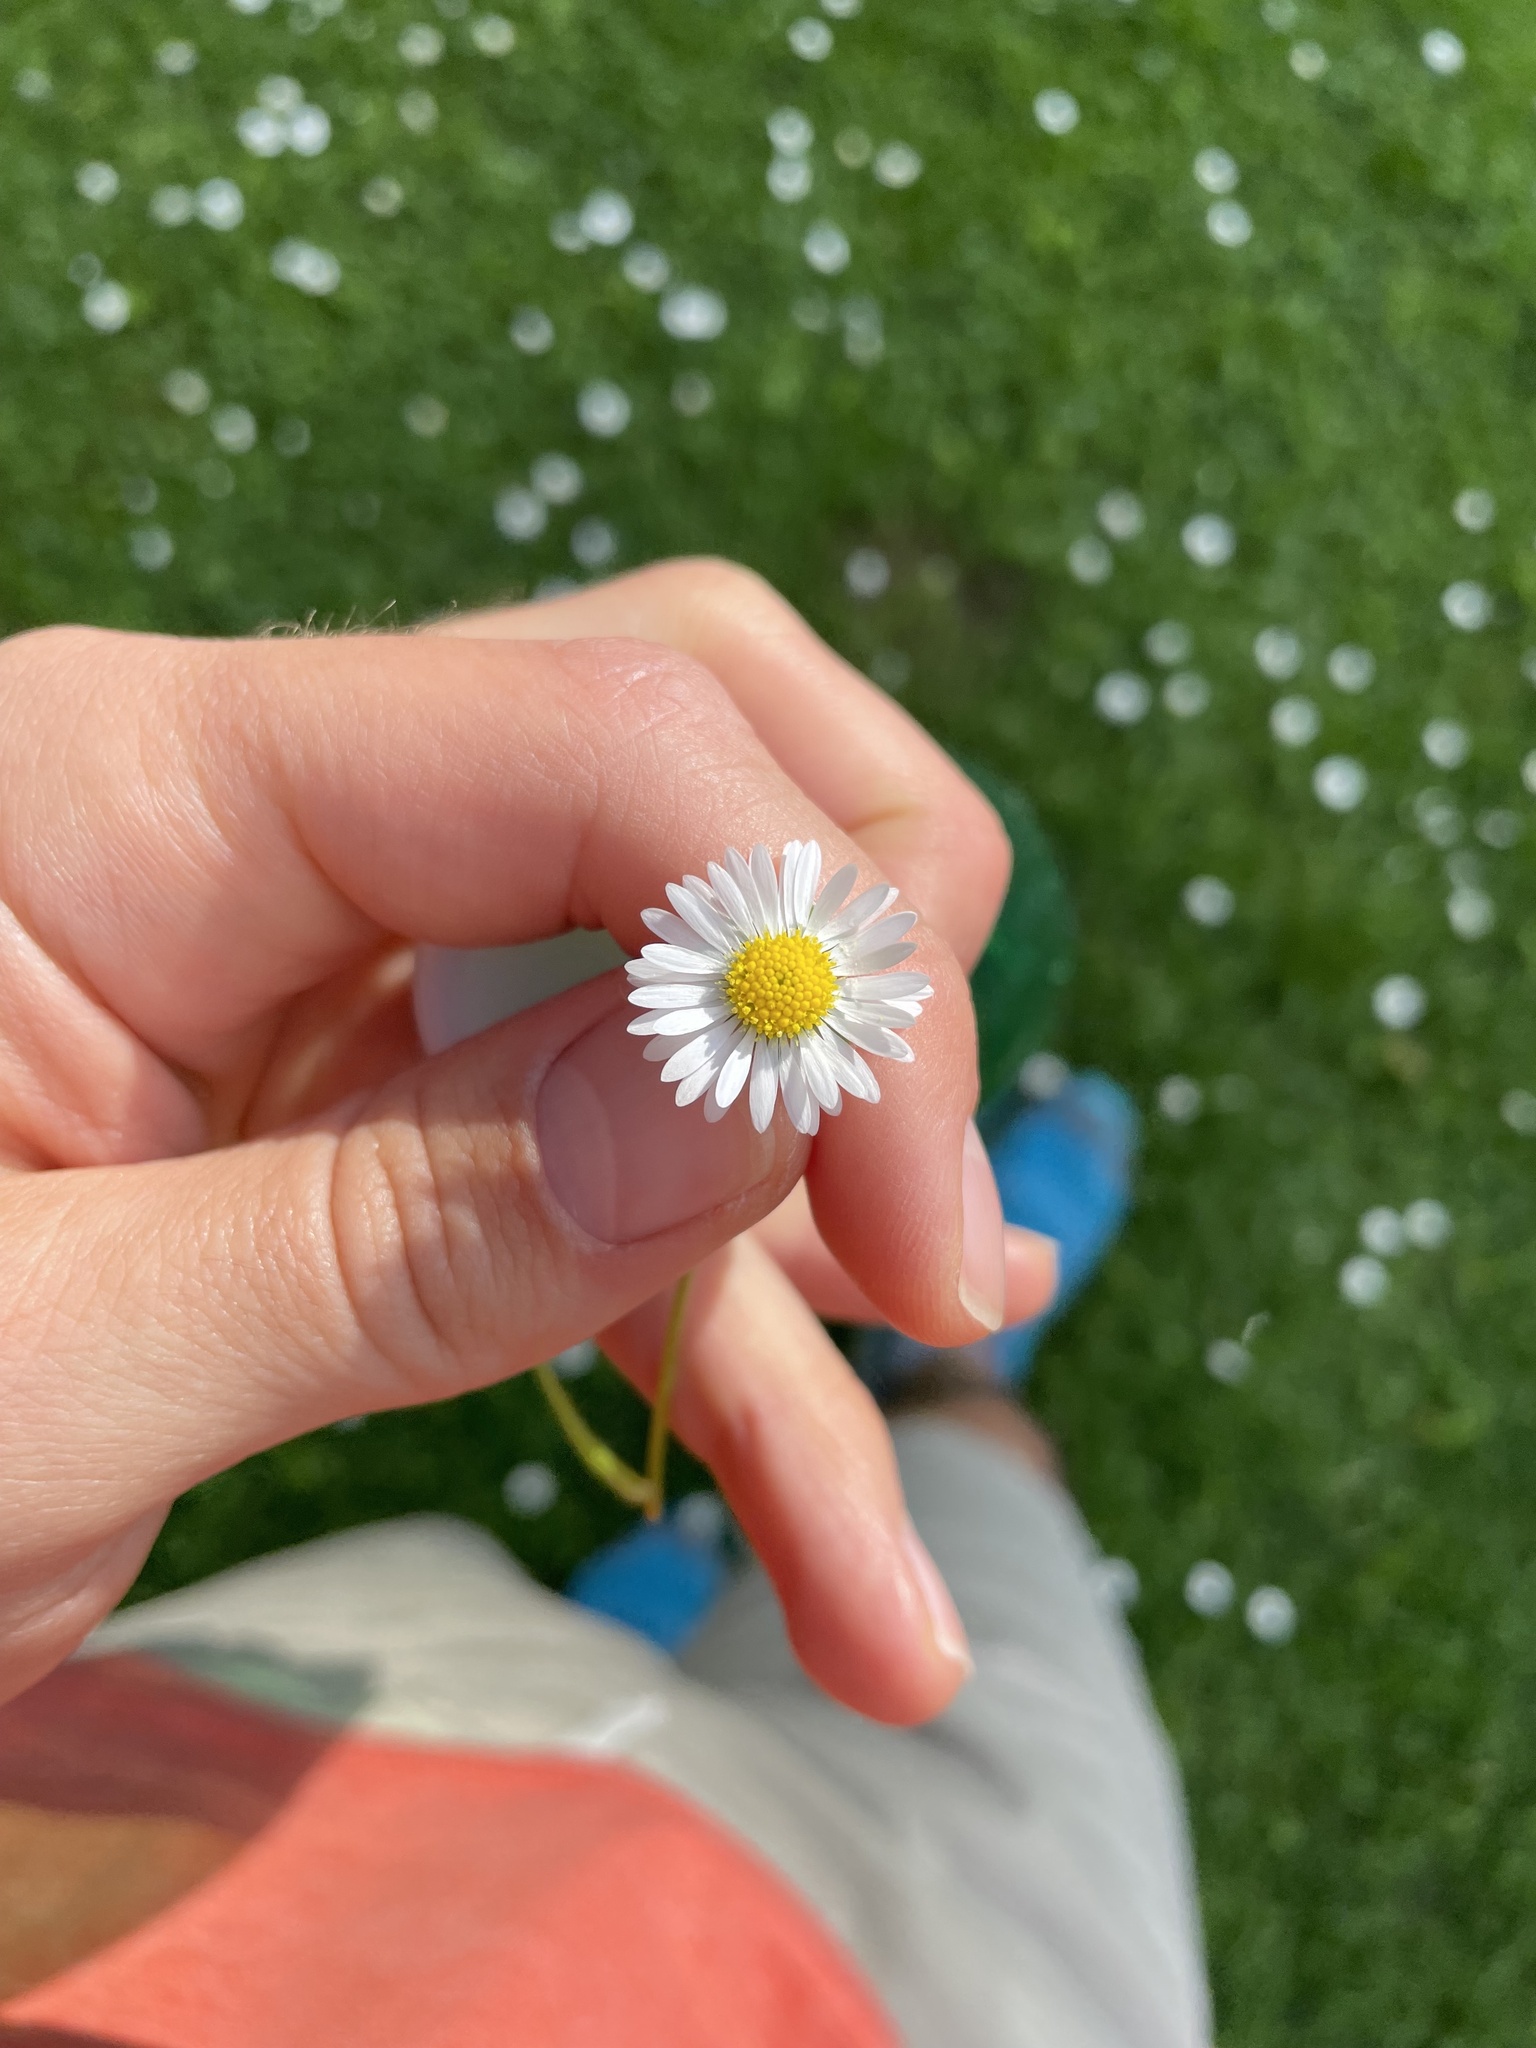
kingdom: Plantae
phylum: Tracheophyta
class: Magnoliopsida
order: Asterales
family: Asteraceae
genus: Bellis
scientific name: Bellis perennis
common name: Lawndaisy
